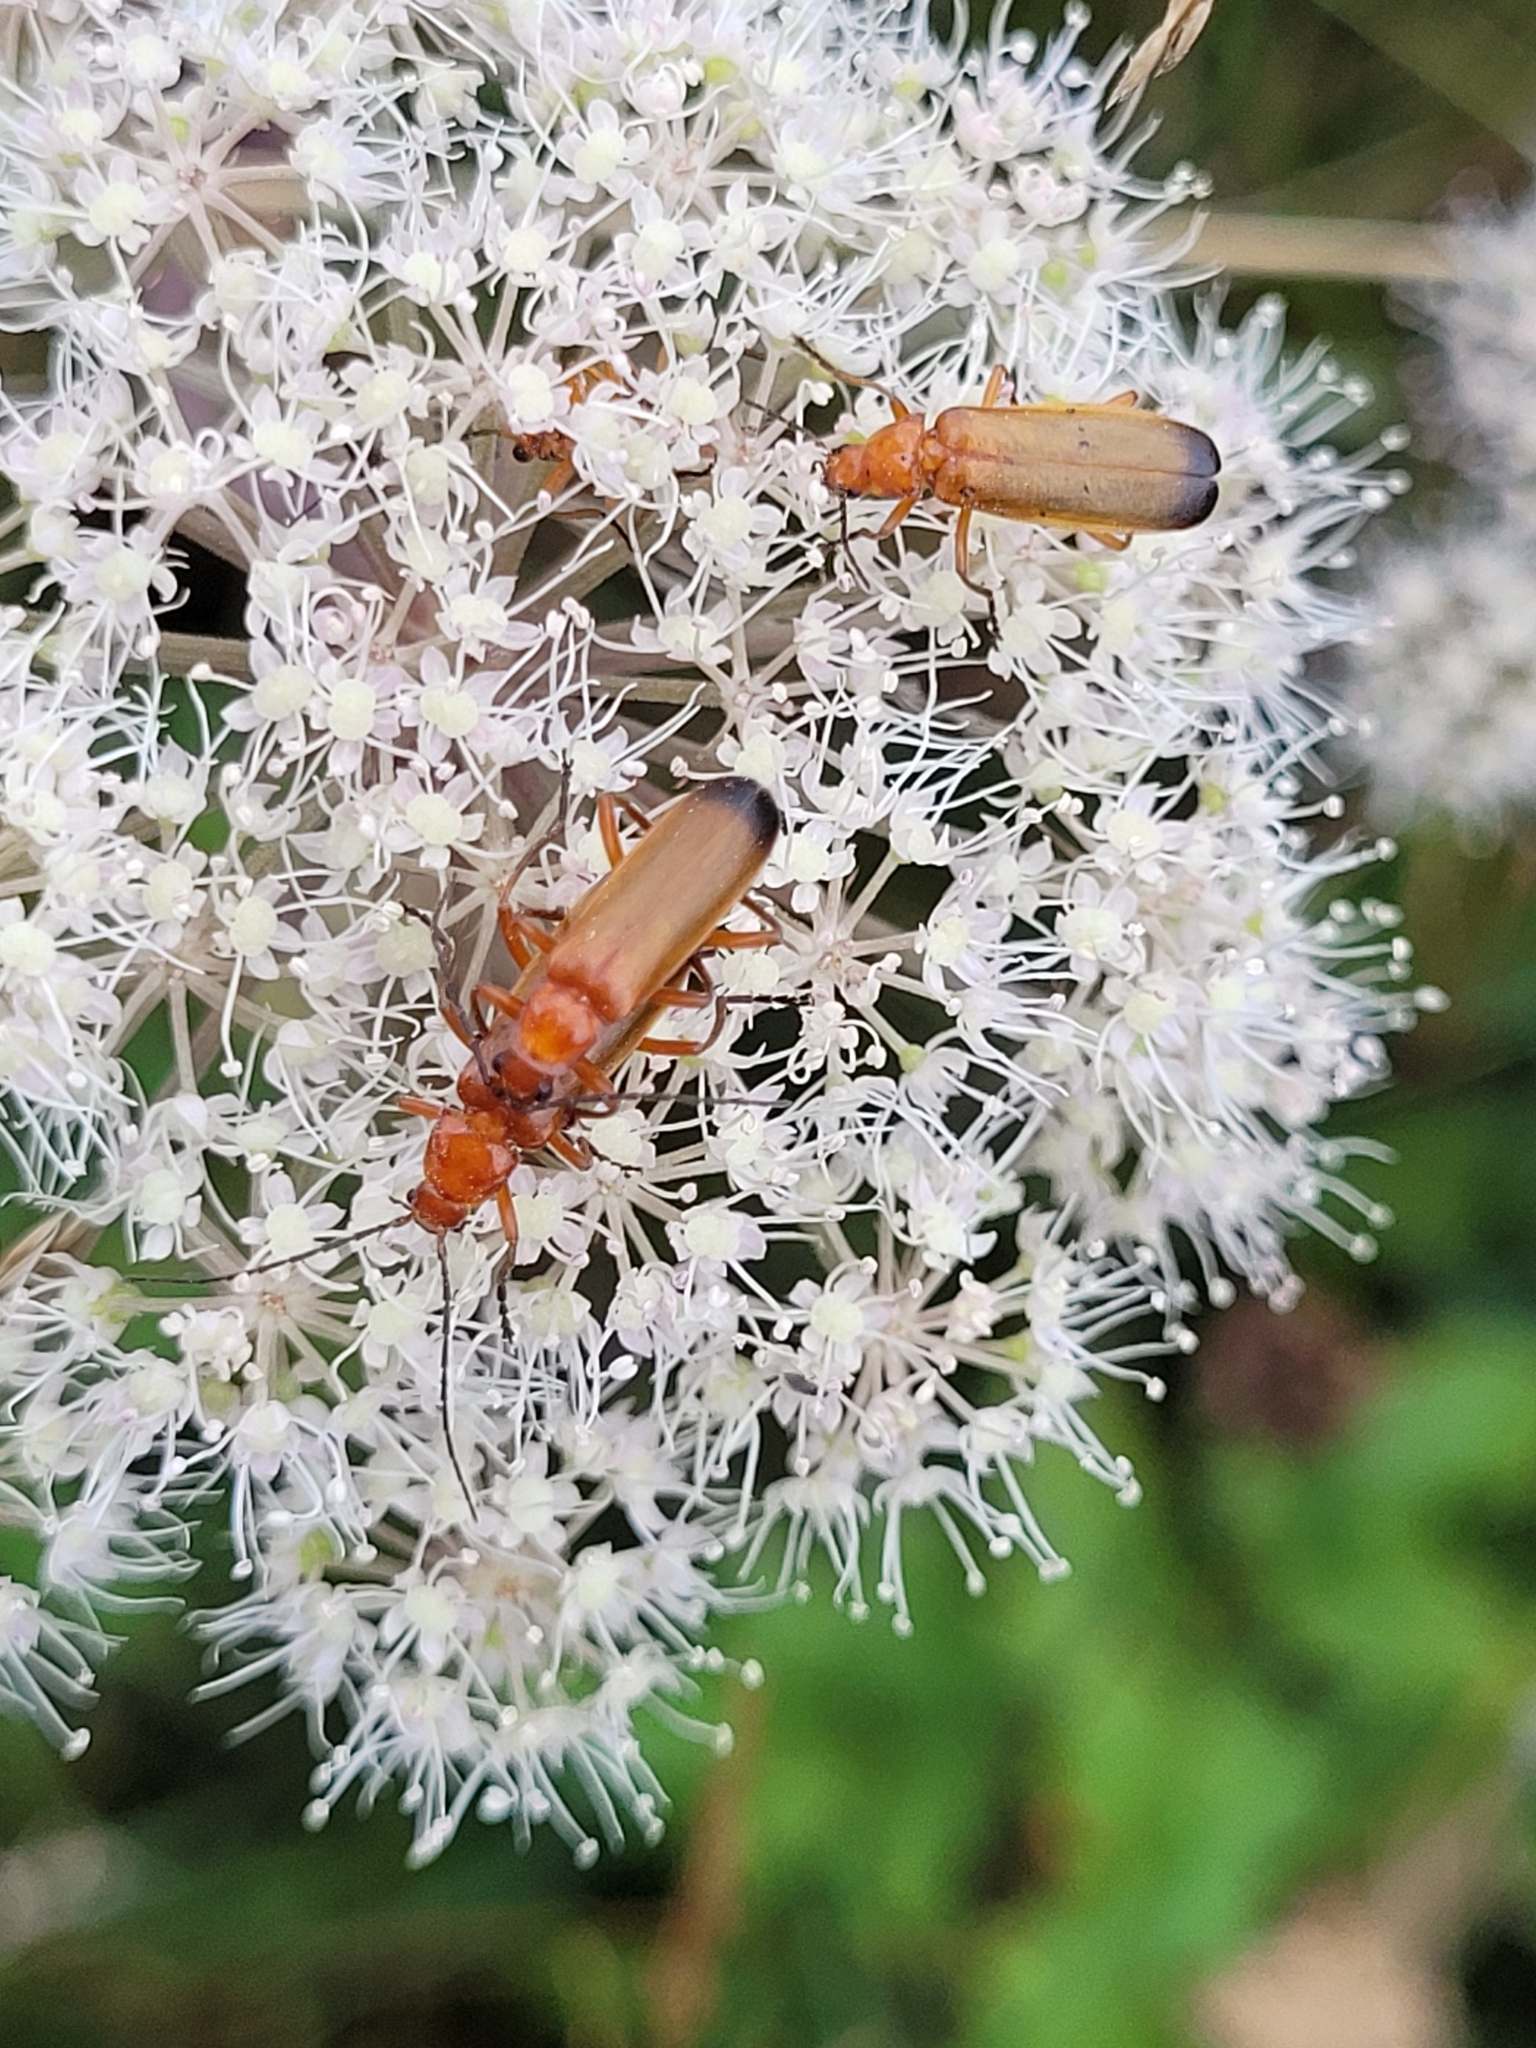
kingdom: Animalia
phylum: Arthropoda
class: Insecta
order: Coleoptera
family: Cantharidae
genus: Rhagonycha
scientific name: Rhagonycha fulva
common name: Common red soldier beetle
